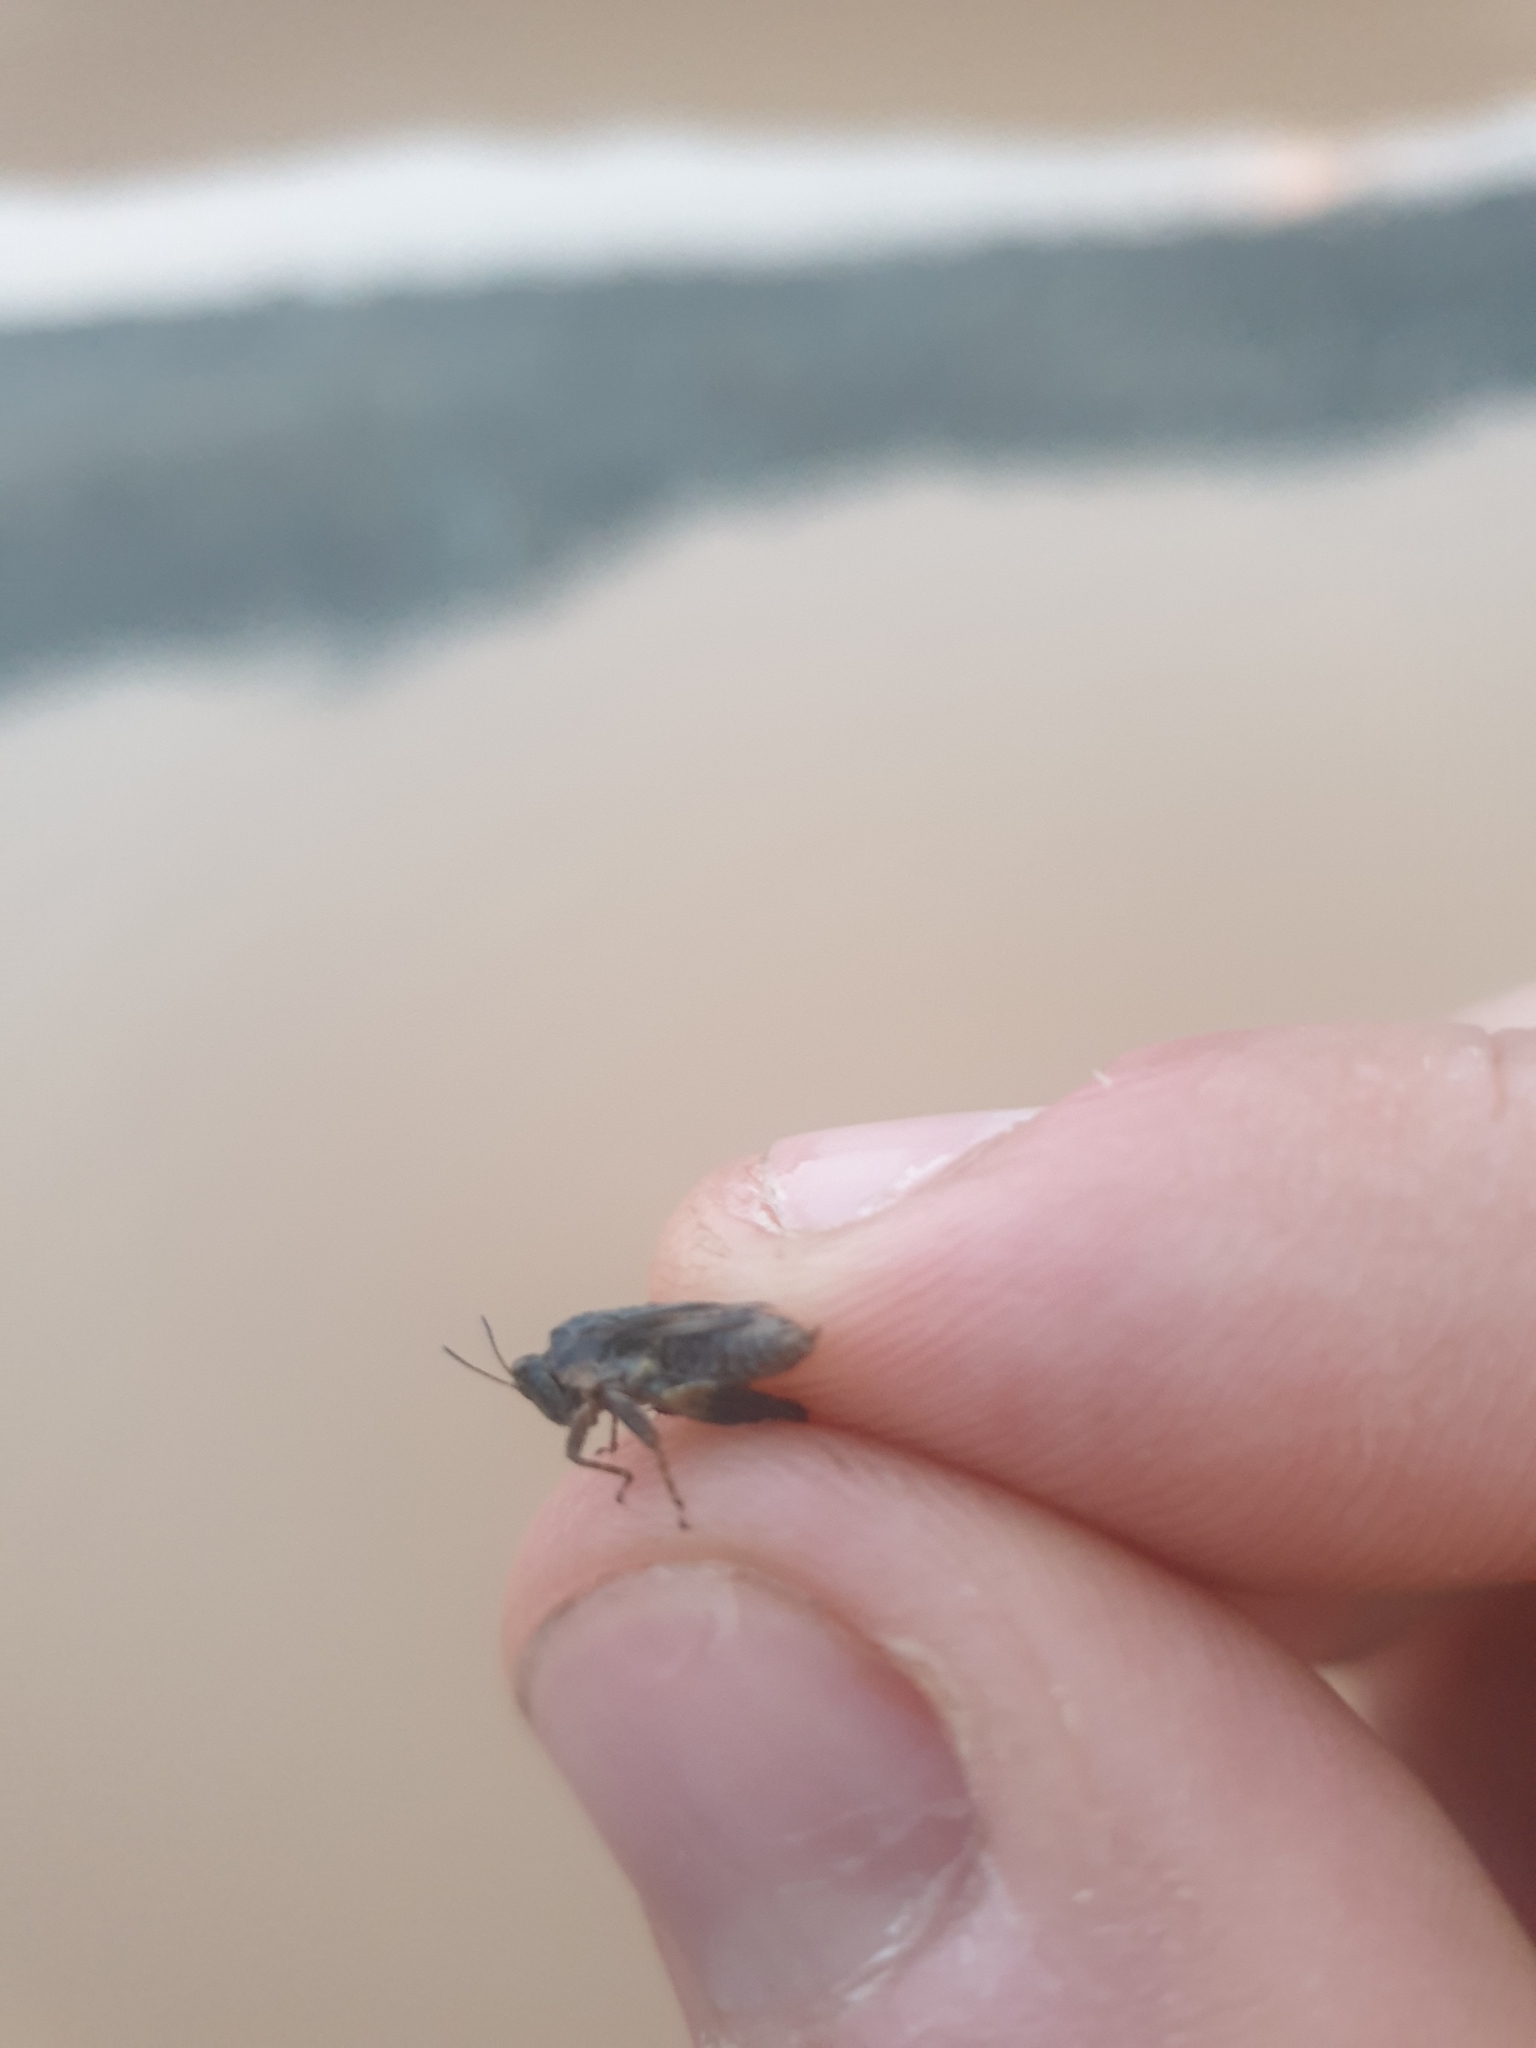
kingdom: Animalia
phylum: Arthropoda
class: Insecta
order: Orthoptera
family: Tetrigidae
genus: Tetrix
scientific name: Tetrix tenuicornis
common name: Long-horned groundhopper
